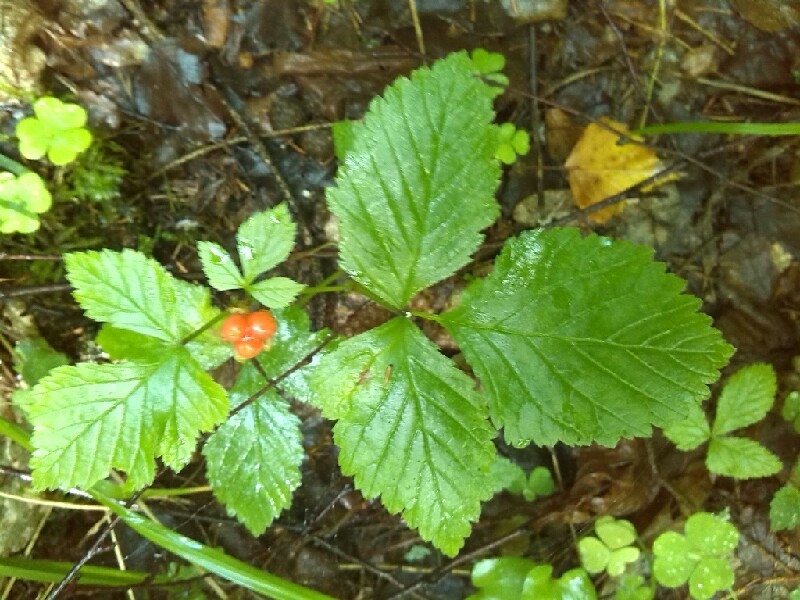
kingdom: Plantae
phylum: Tracheophyta
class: Magnoliopsida
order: Rosales
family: Rosaceae
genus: Rubus
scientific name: Rubus saxatilis
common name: Stone bramble
